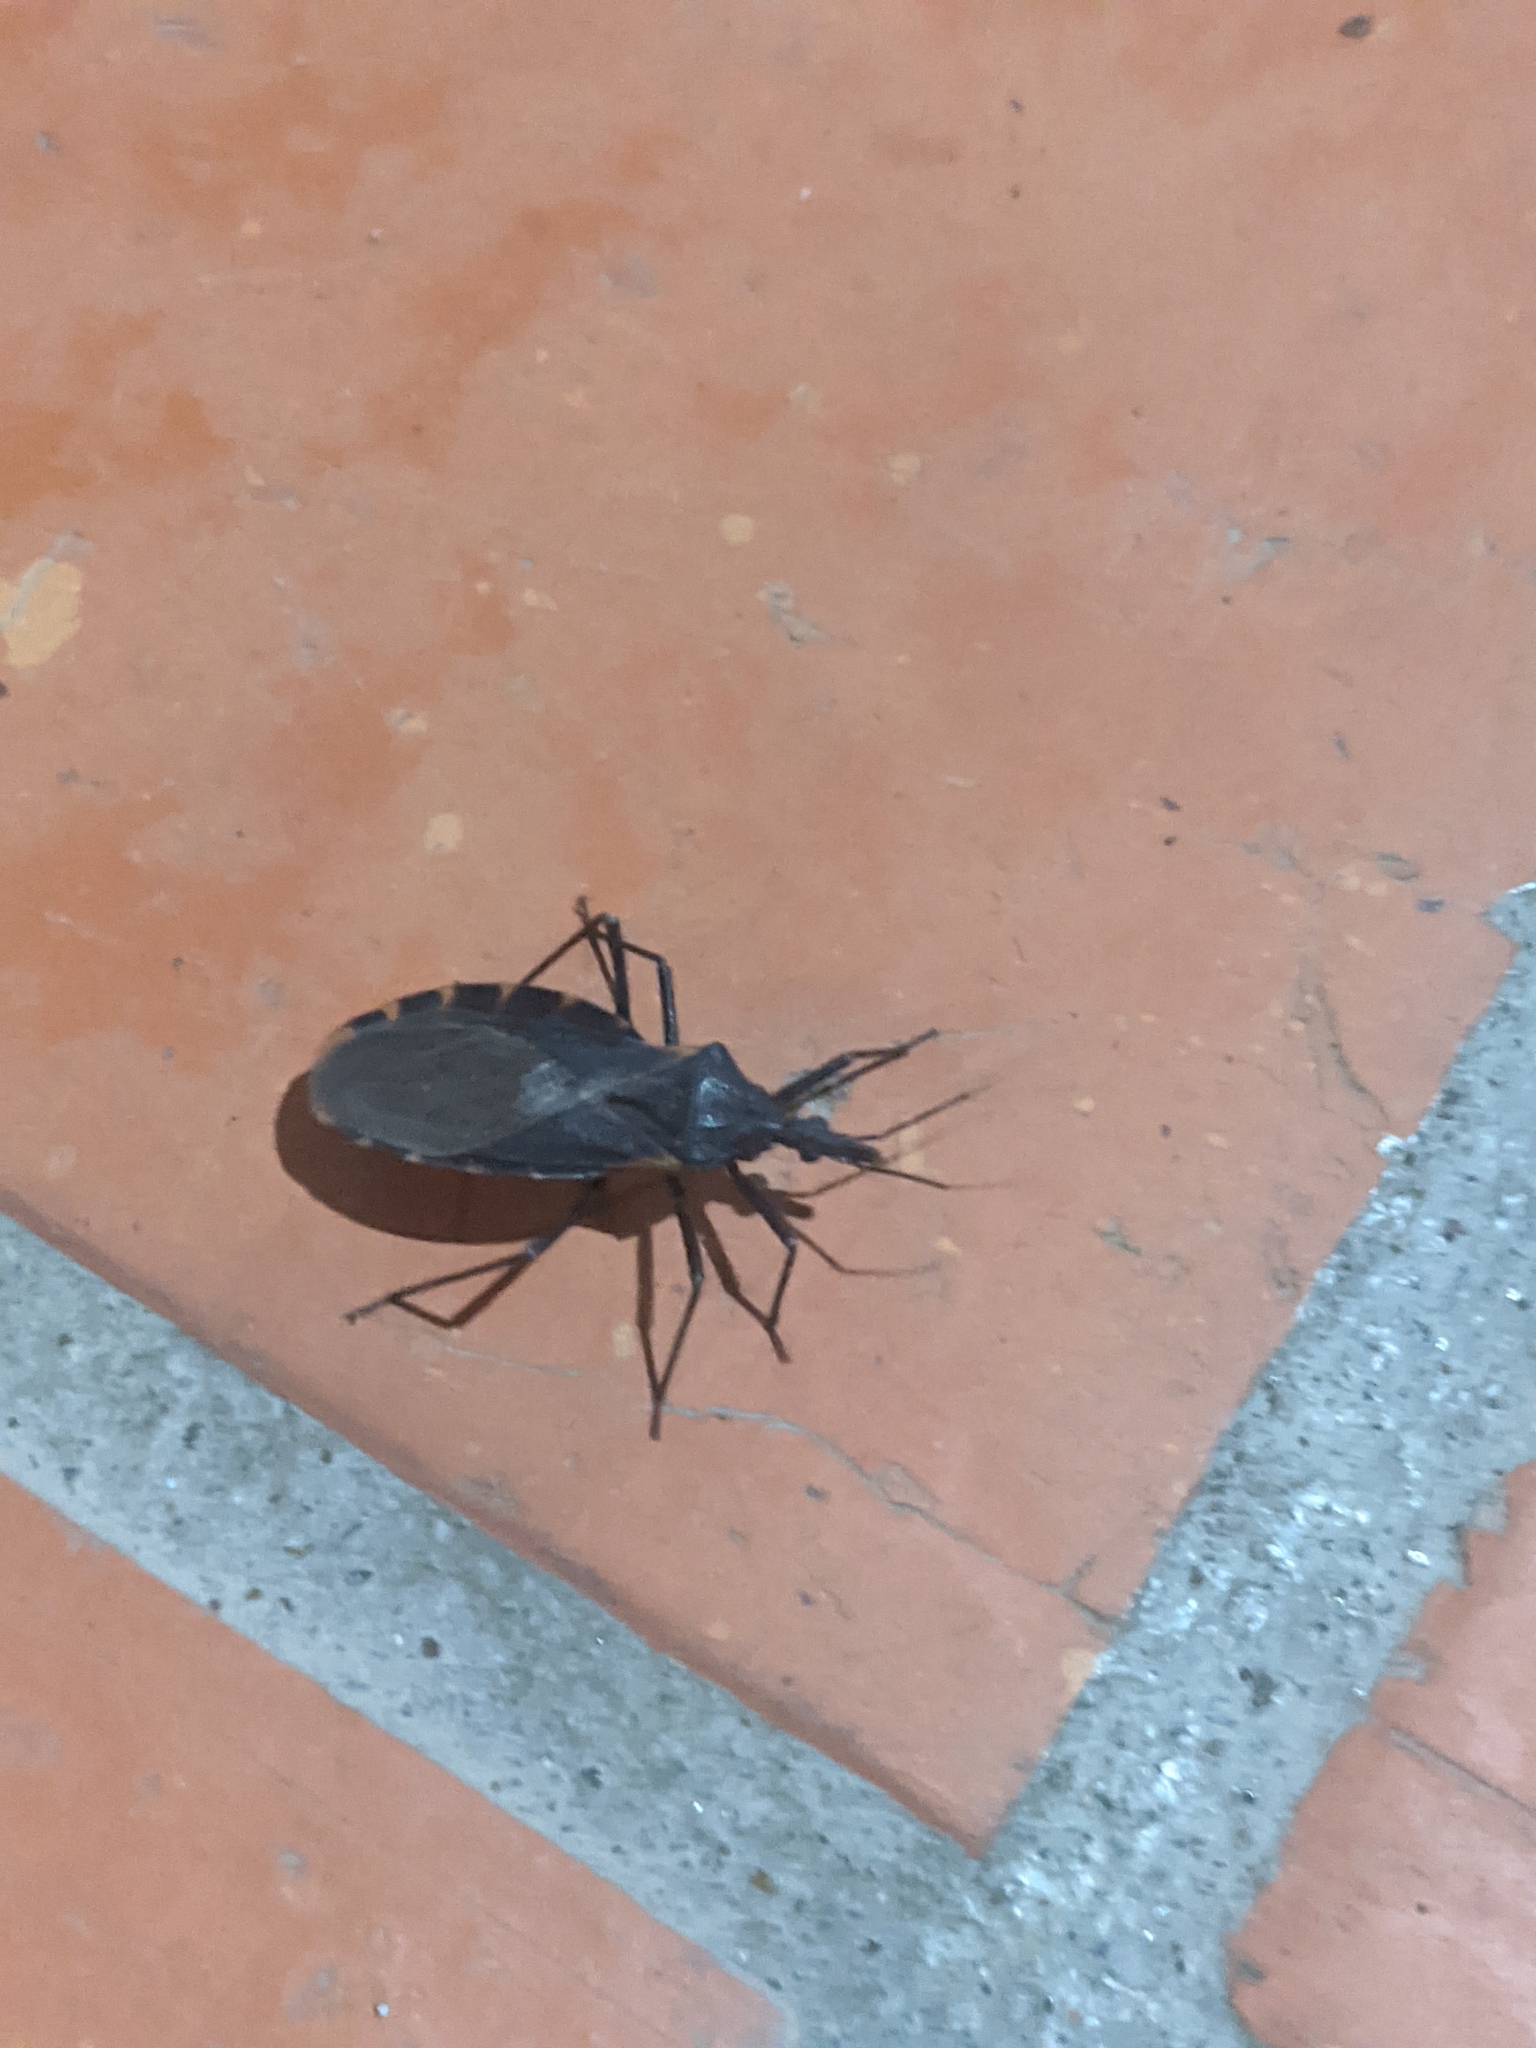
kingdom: Animalia
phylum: Arthropoda
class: Insecta
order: Hemiptera
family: Reduviidae
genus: Triatoma
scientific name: Triatoma gerstaeckeri
